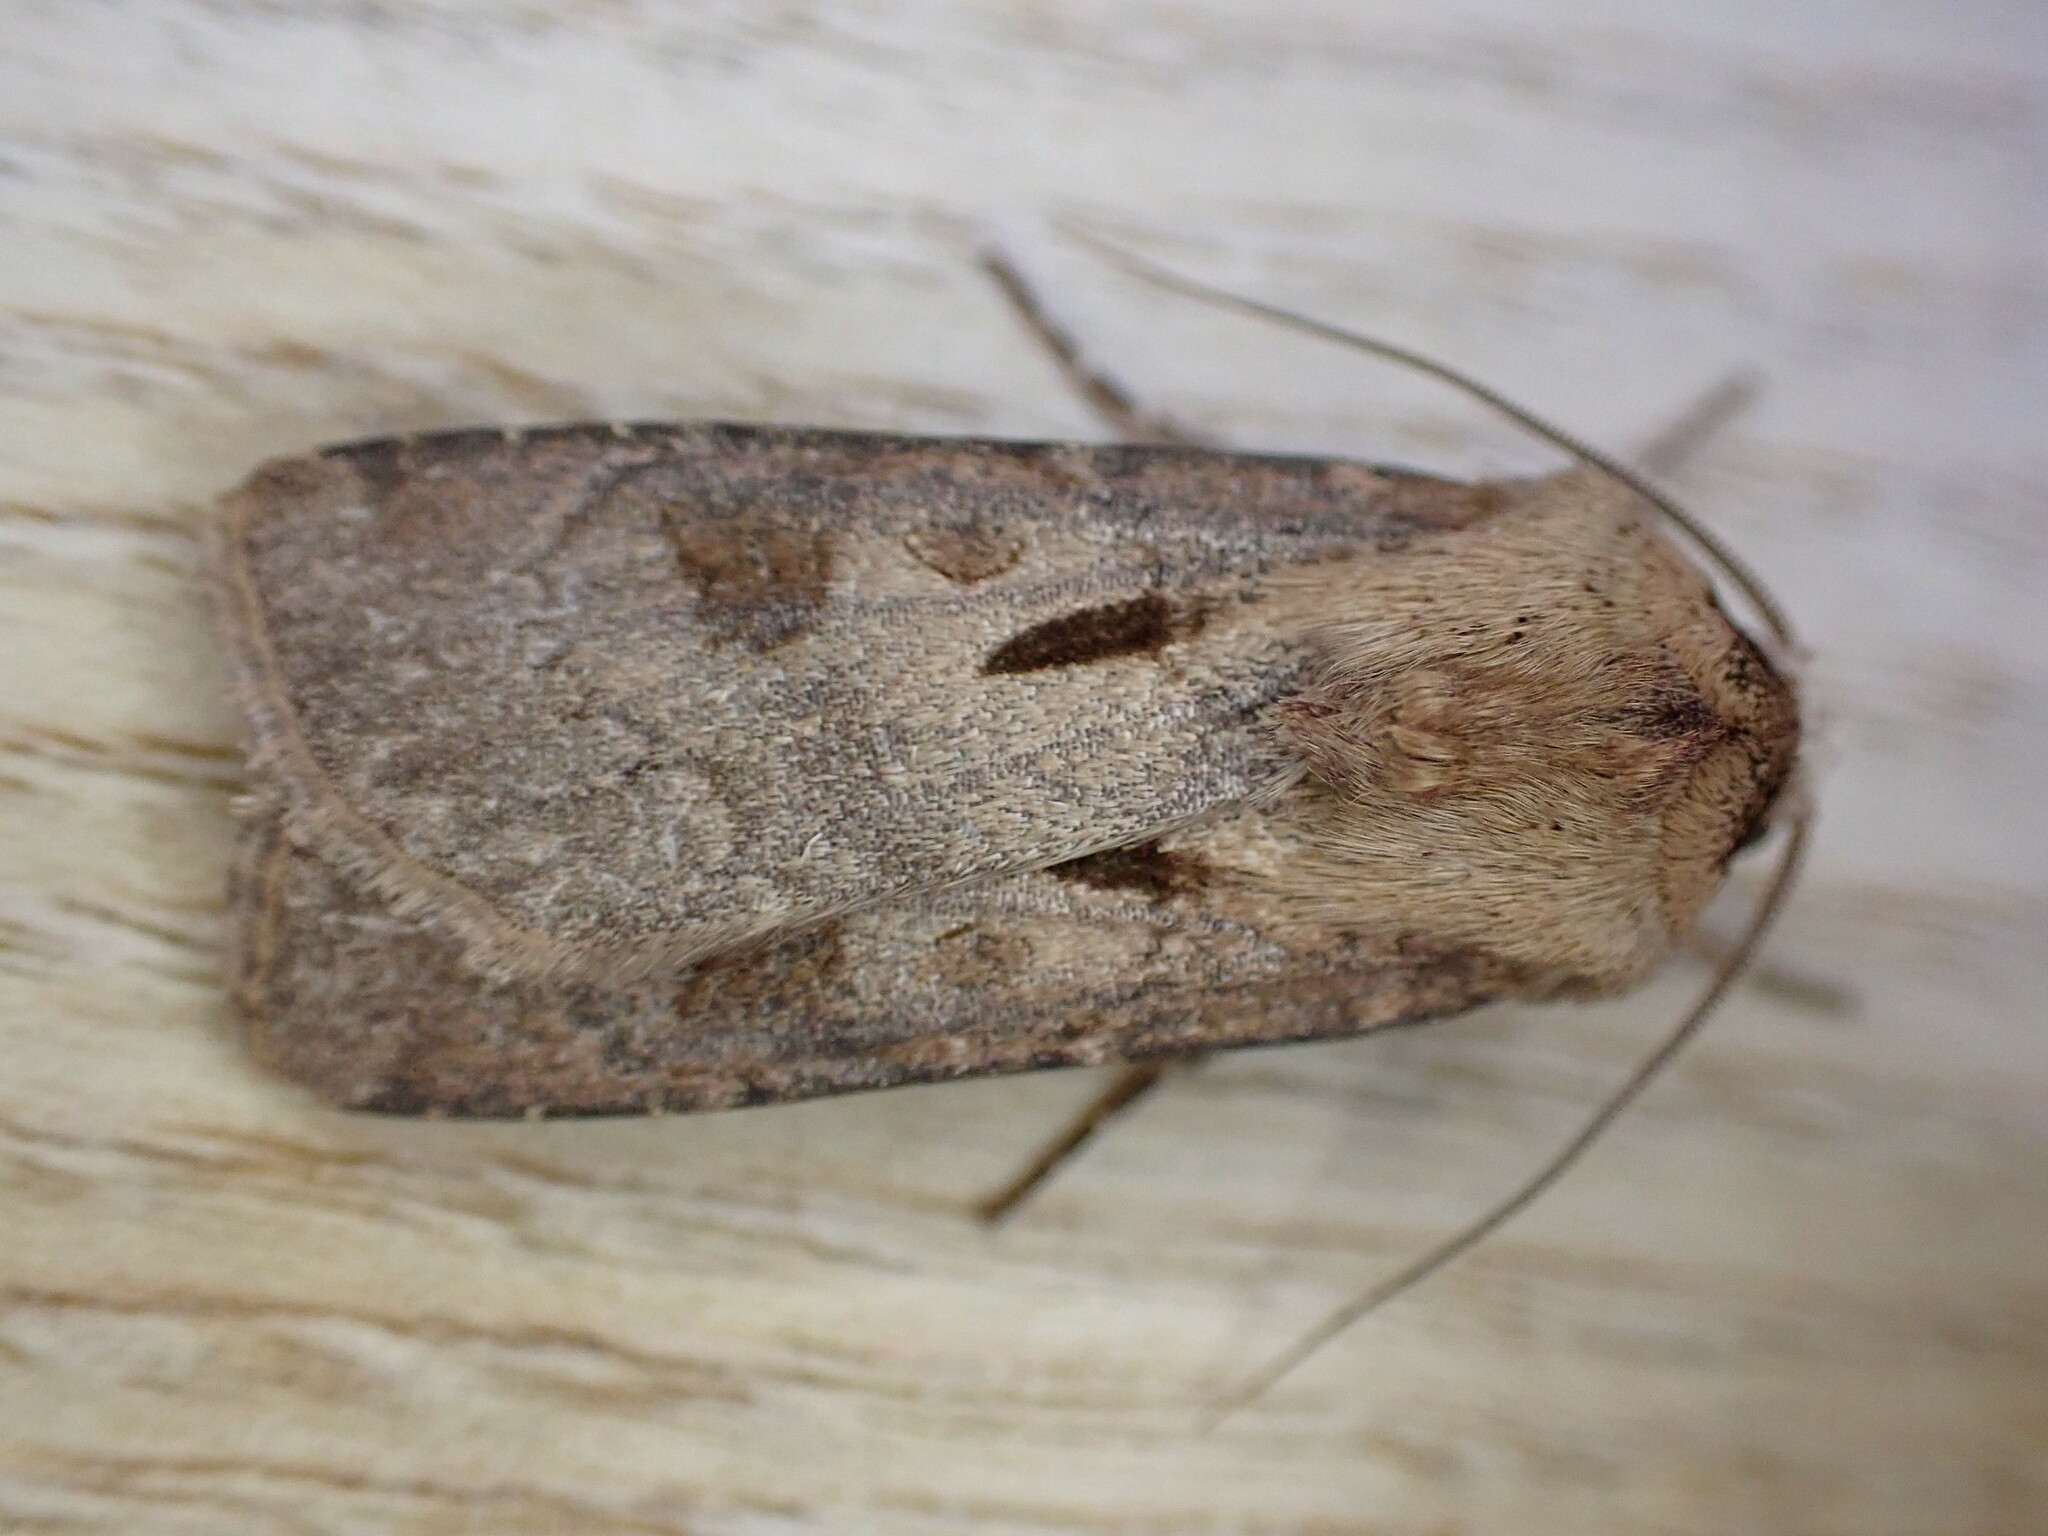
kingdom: Animalia
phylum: Arthropoda
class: Insecta
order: Lepidoptera
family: Noctuidae
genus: Agrotis
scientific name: Agrotis exclamationis
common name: Heart and dart
